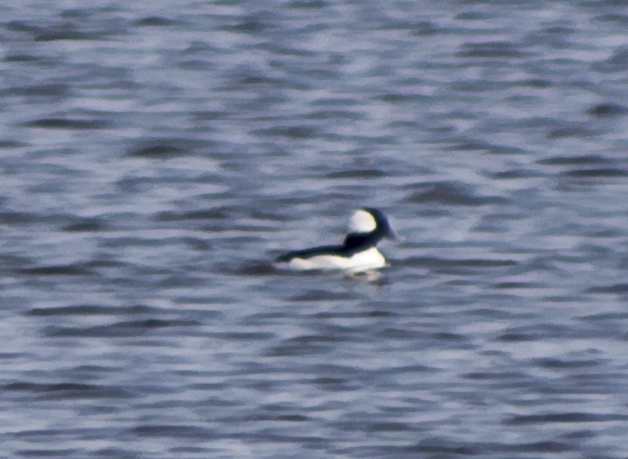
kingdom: Animalia
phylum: Chordata
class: Aves
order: Anseriformes
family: Anatidae
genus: Bucephala
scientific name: Bucephala albeola
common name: Bufflehead
